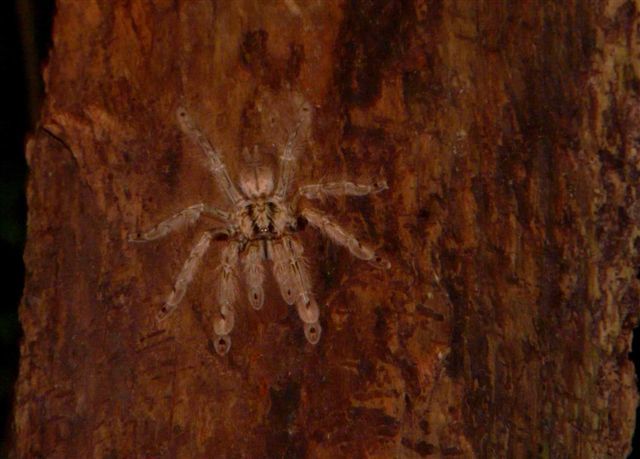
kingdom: Animalia
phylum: Arthropoda
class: Arachnida
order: Araneae
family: Theraphosidae
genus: Stromatopelma
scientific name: Stromatopelma calceatum
